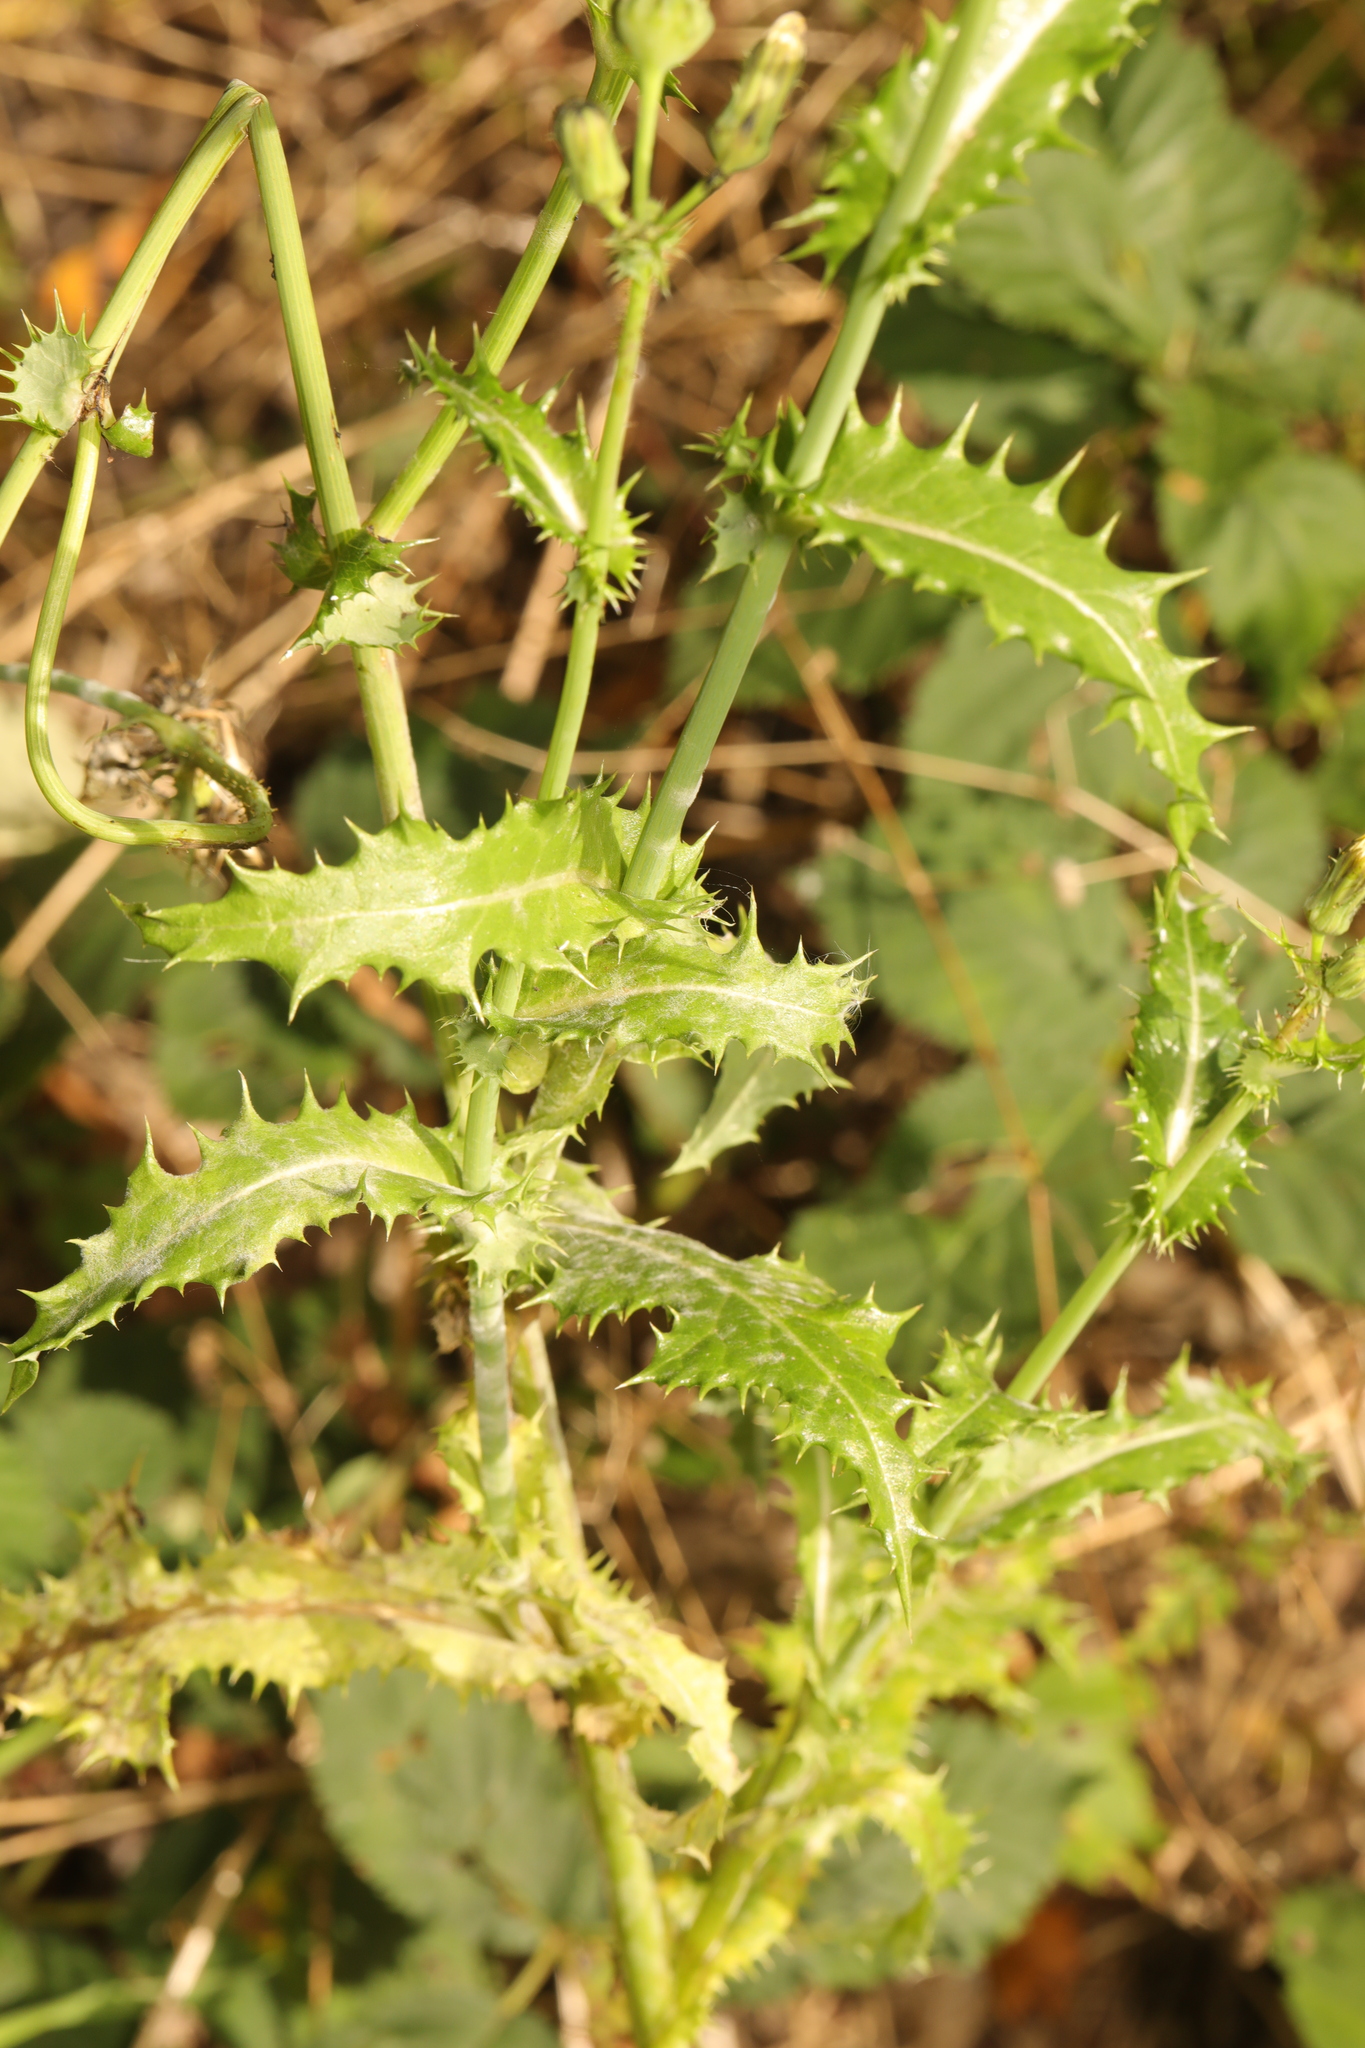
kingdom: Plantae
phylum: Tracheophyta
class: Magnoliopsida
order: Asterales
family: Asteraceae
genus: Sonchus
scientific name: Sonchus asper
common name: Prickly sow-thistle
